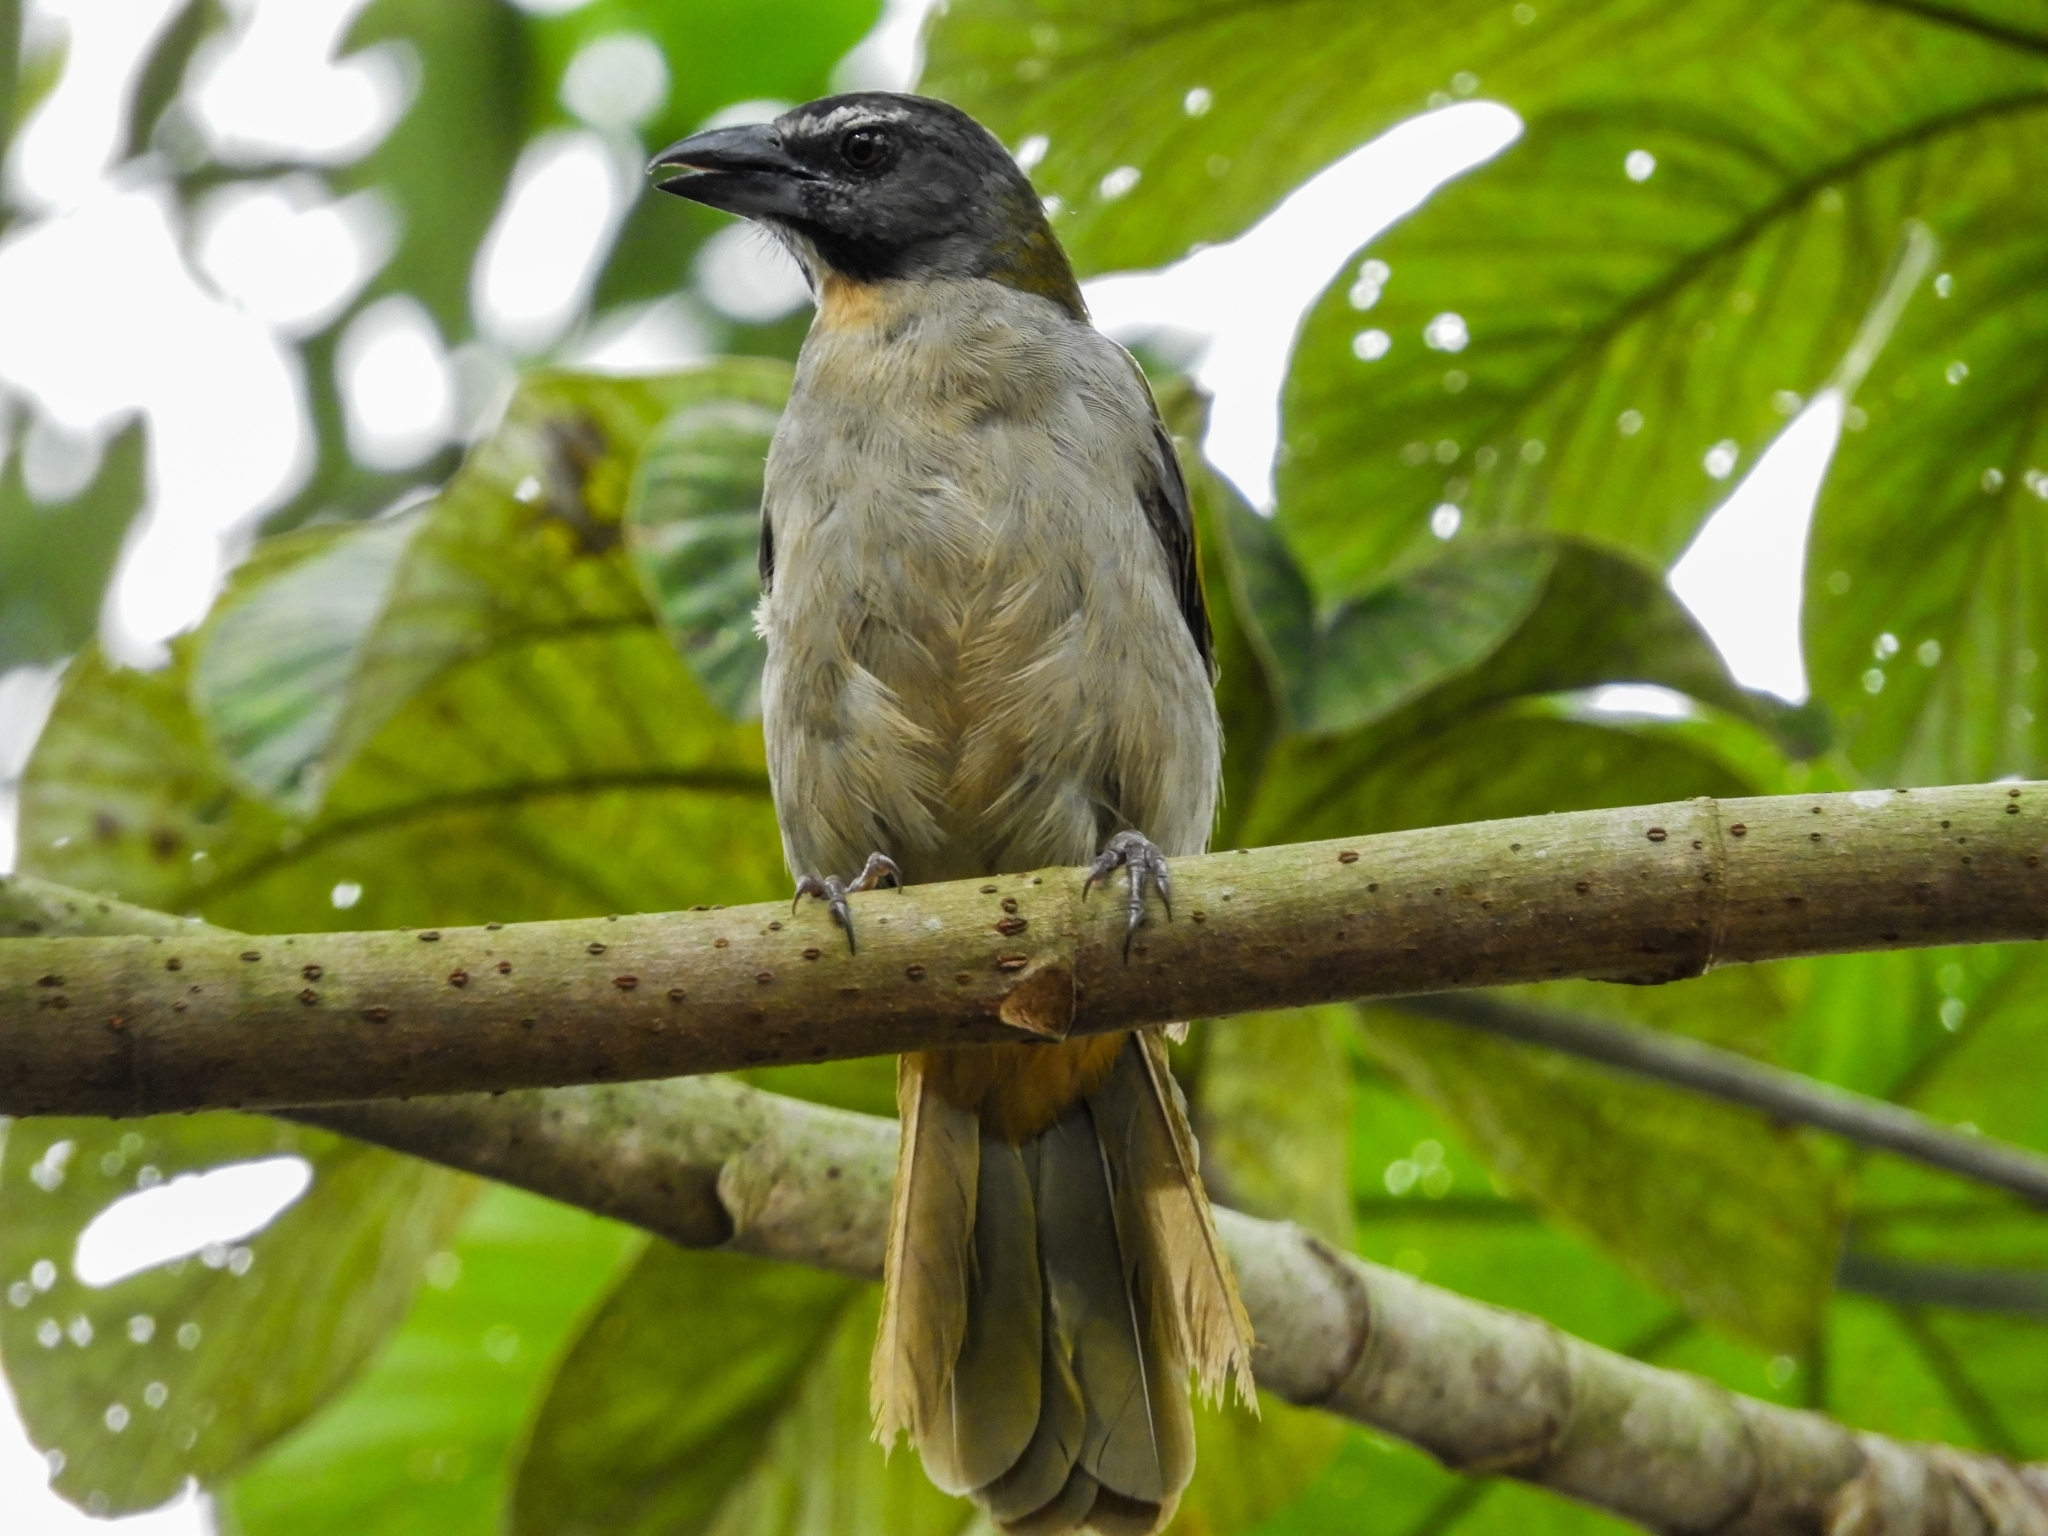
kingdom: Animalia
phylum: Chordata
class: Aves
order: Passeriformes
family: Thraupidae
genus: Saltator
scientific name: Saltator olivascens
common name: Caribbean grey saltator
